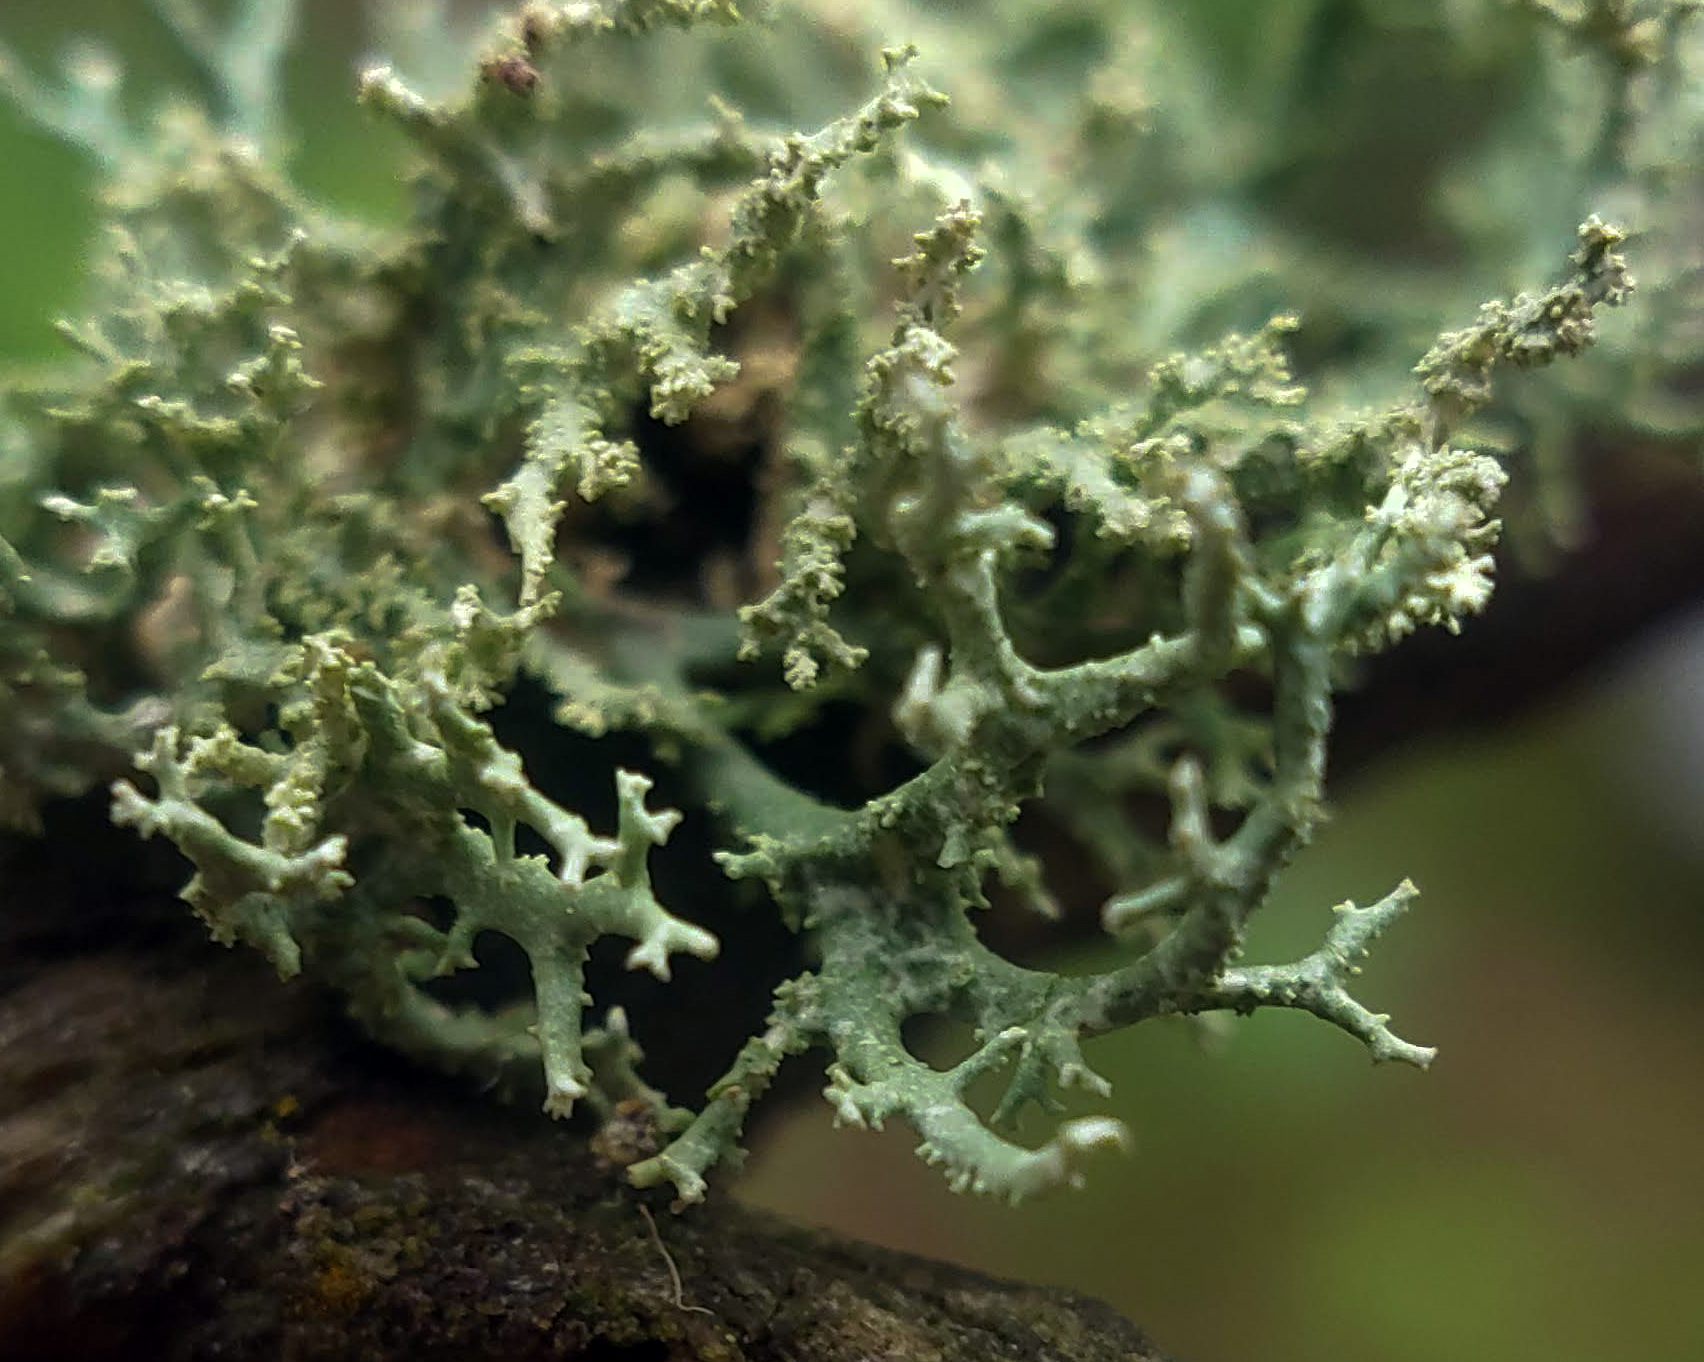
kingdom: Fungi
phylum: Ascomycota
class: Lecanoromycetes
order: Lecanorales
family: Parmeliaceae
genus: Evernia
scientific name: Evernia mesomorpha
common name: Boreal oak moss lichen
